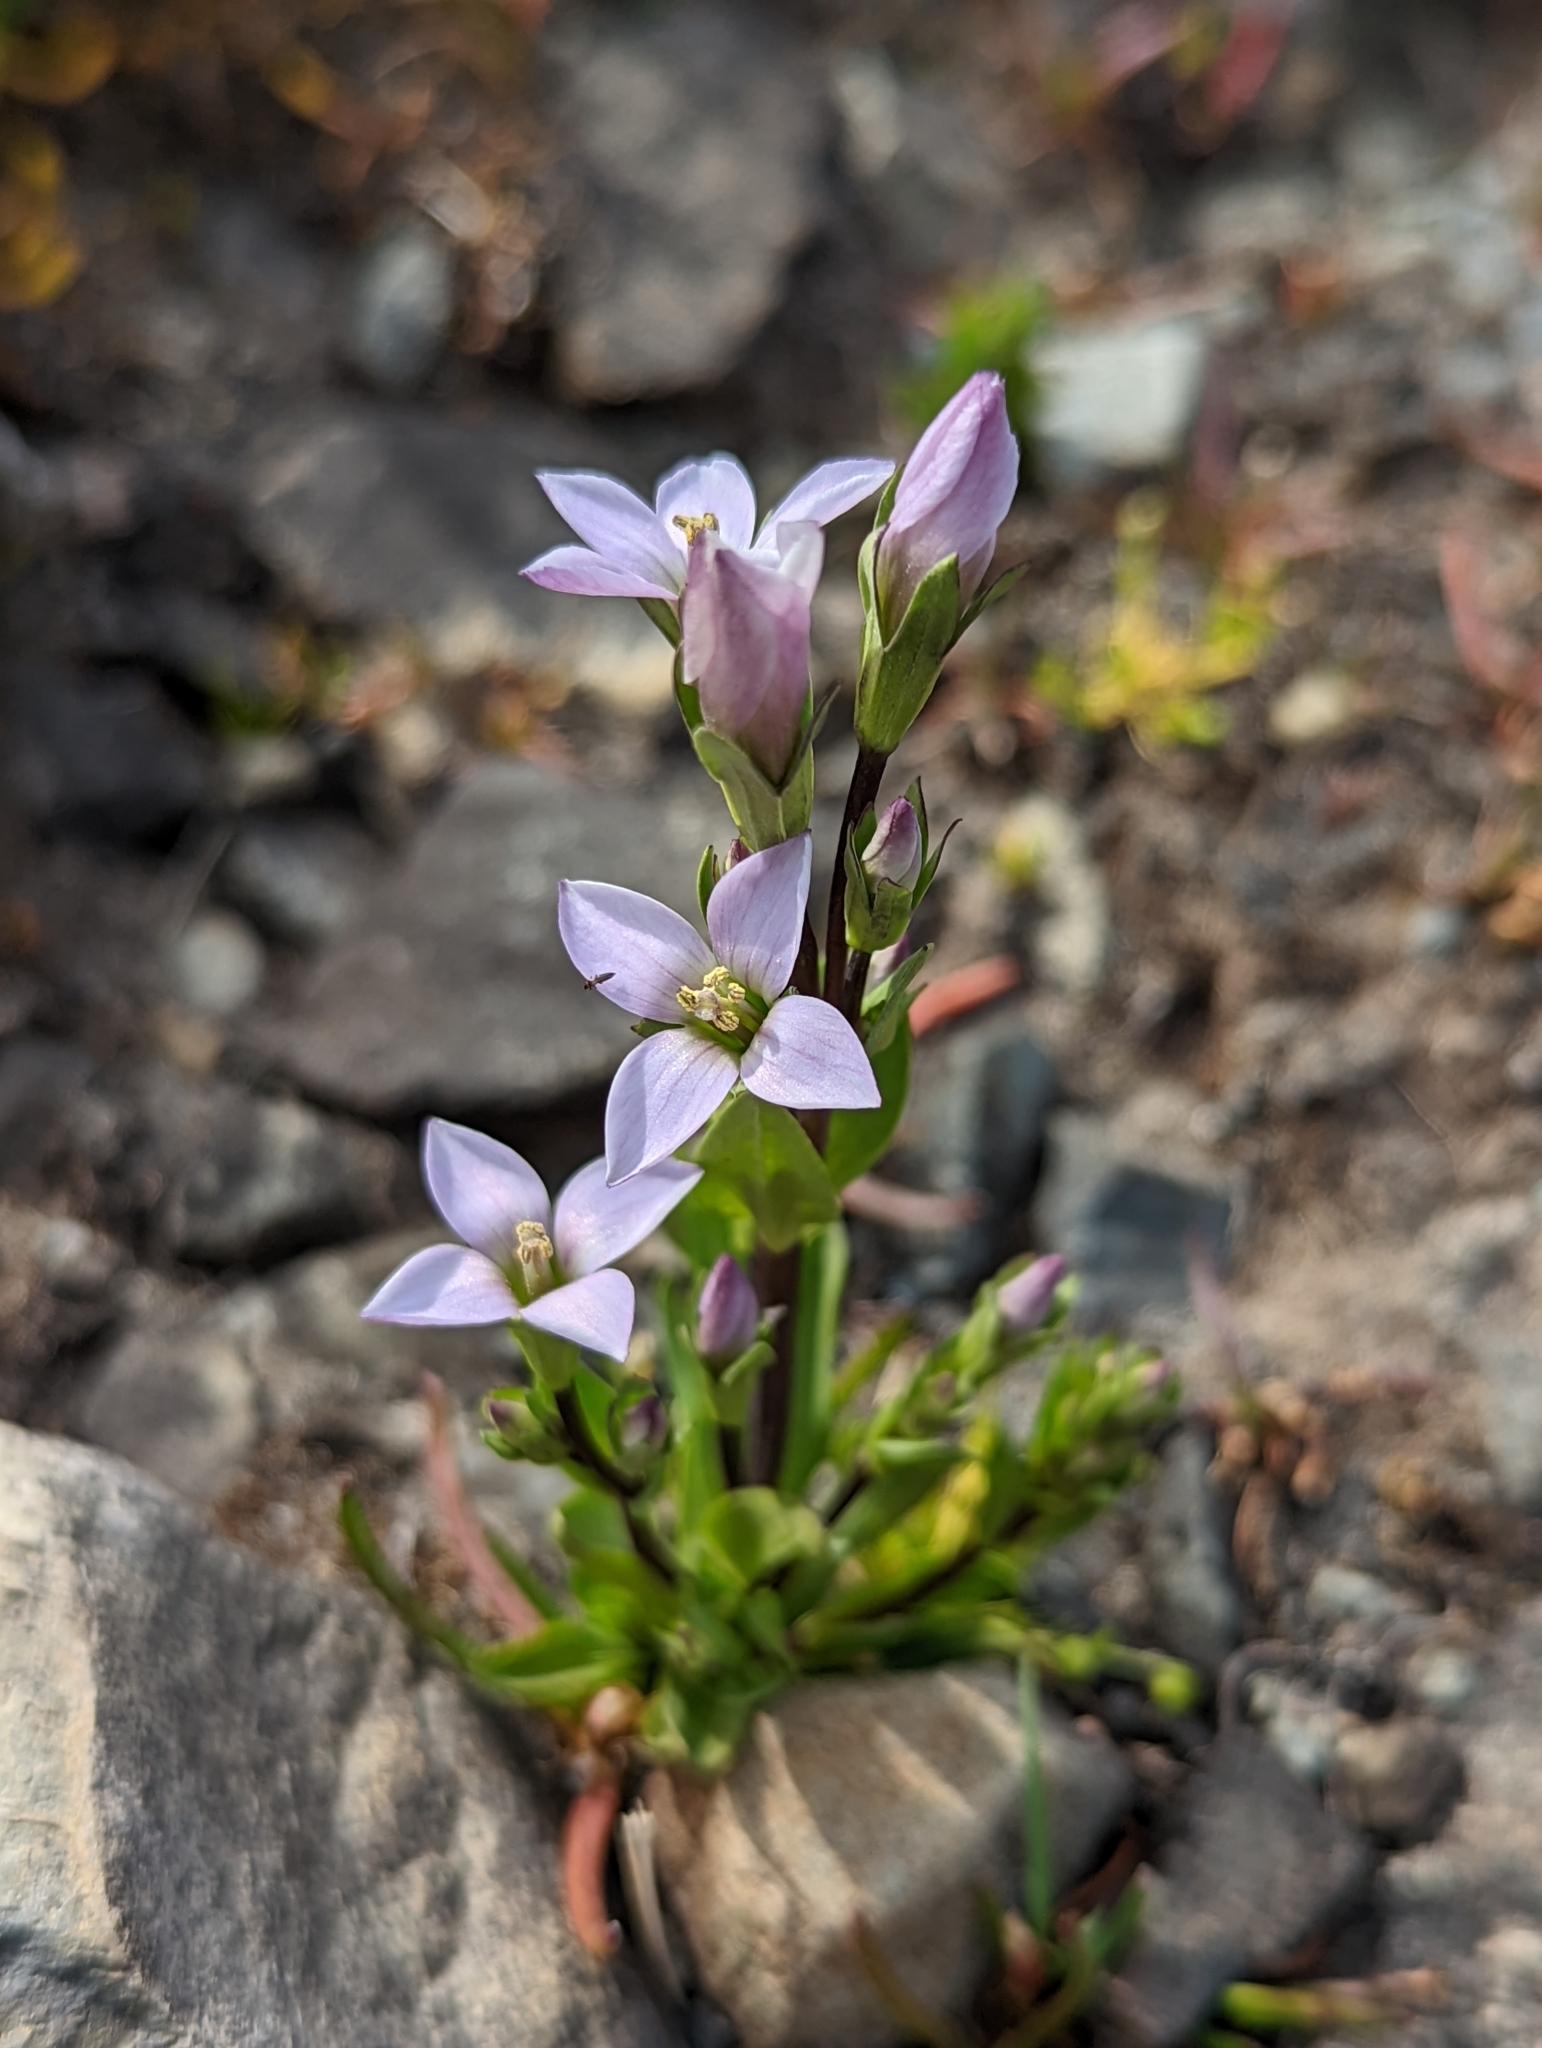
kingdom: Plantae
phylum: Tracheophyta
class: Magnoliopsida
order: Gentianales
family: Gentianaceae
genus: Gentianella
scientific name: Gentianella magellanica
